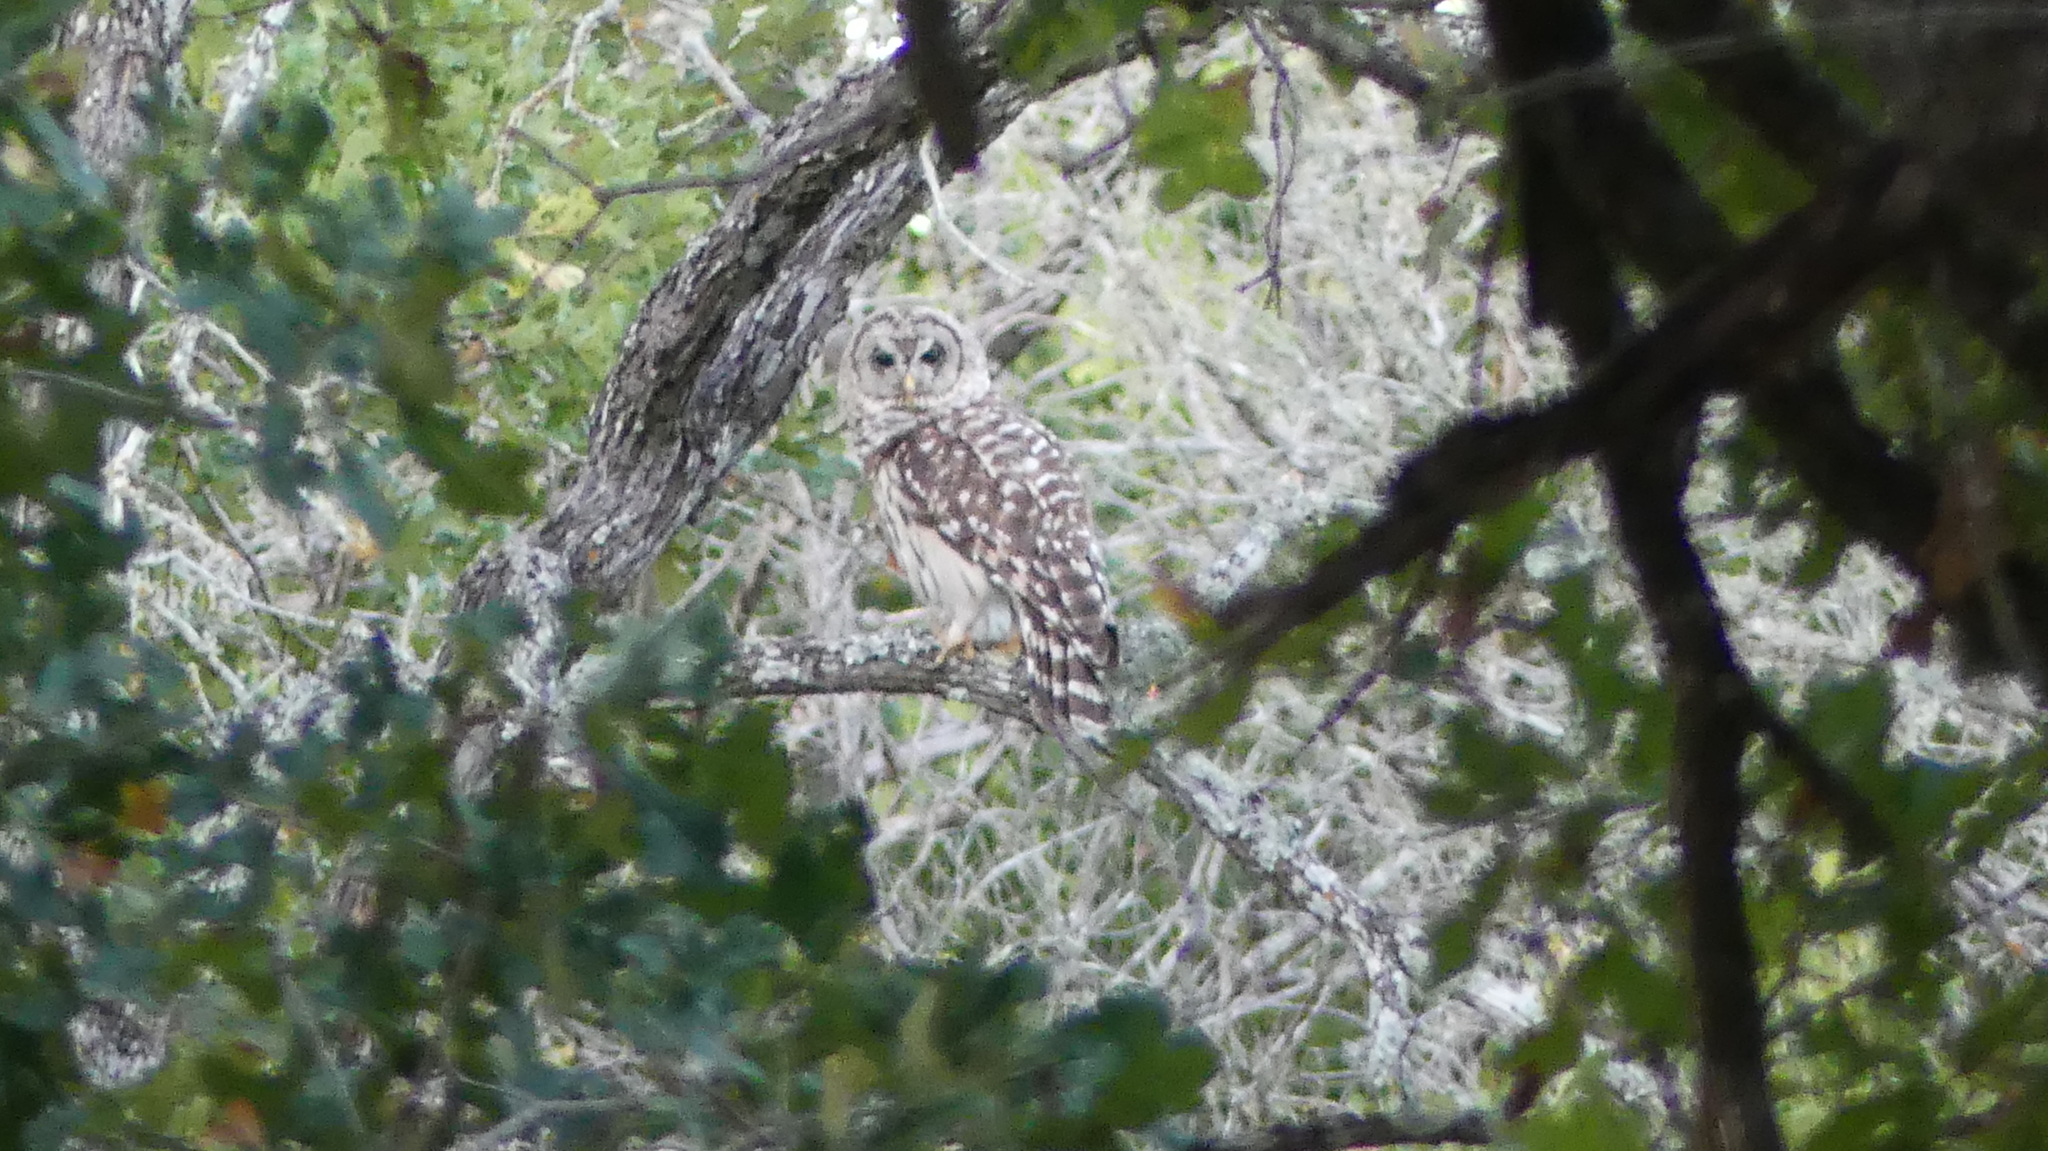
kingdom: Animalia
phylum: Chordata
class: Aves
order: Strigiformes
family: Strigidae
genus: Strix
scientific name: Strix varia
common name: Barred owl
